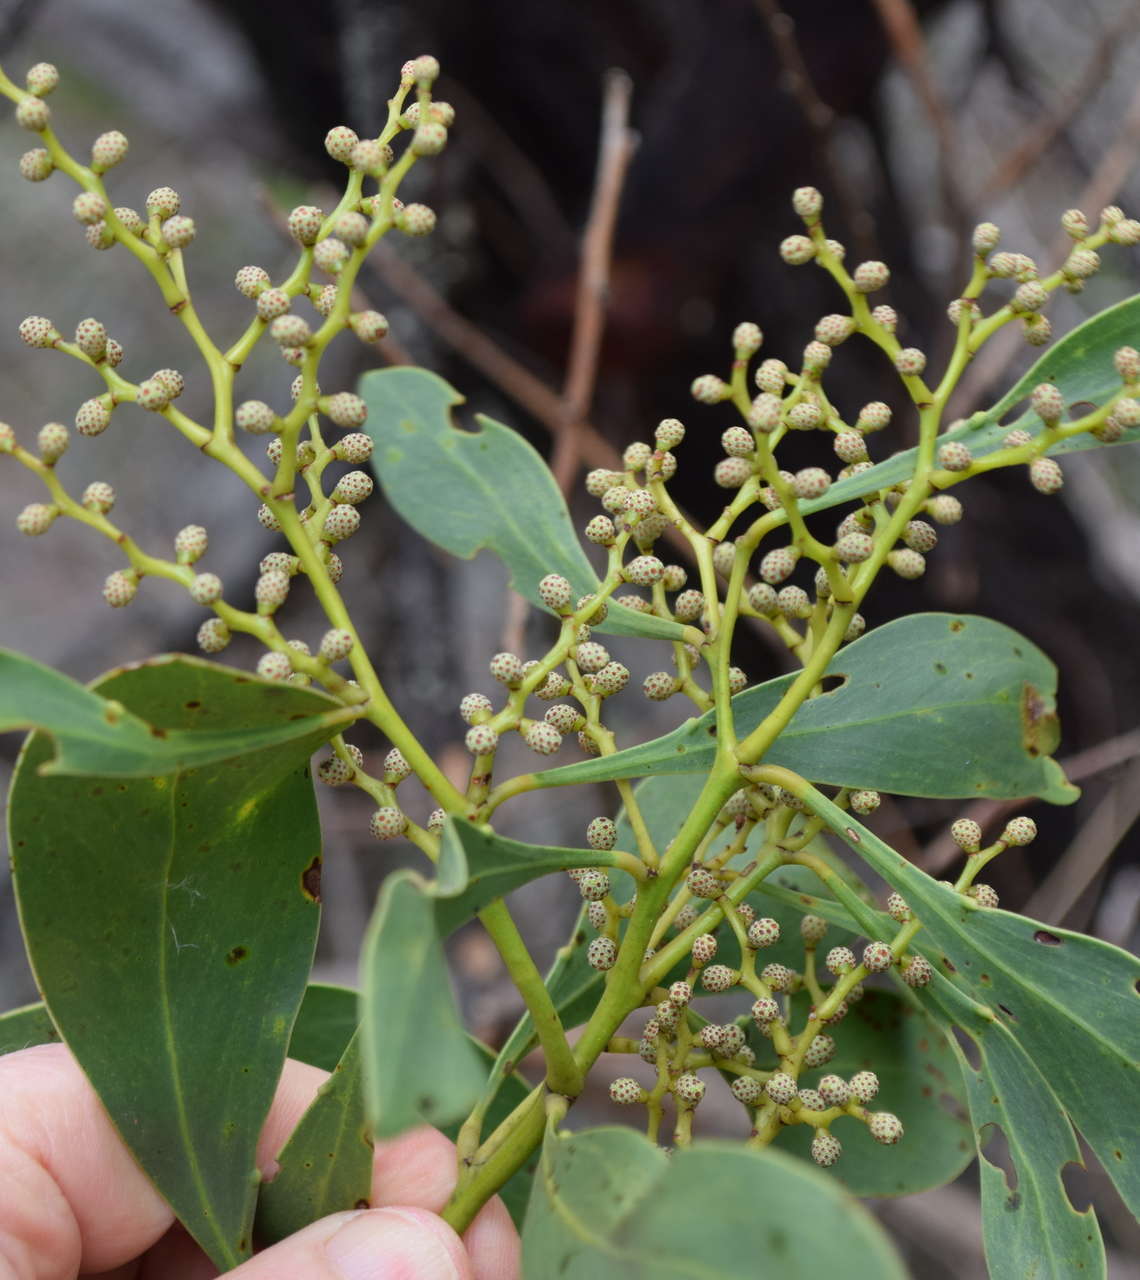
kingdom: Plantae
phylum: Tracheophyta
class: Magnoliopsida
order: Fabales
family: Fabaceae
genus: Acacia
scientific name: Acacia pycnantha
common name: Golden wattle
